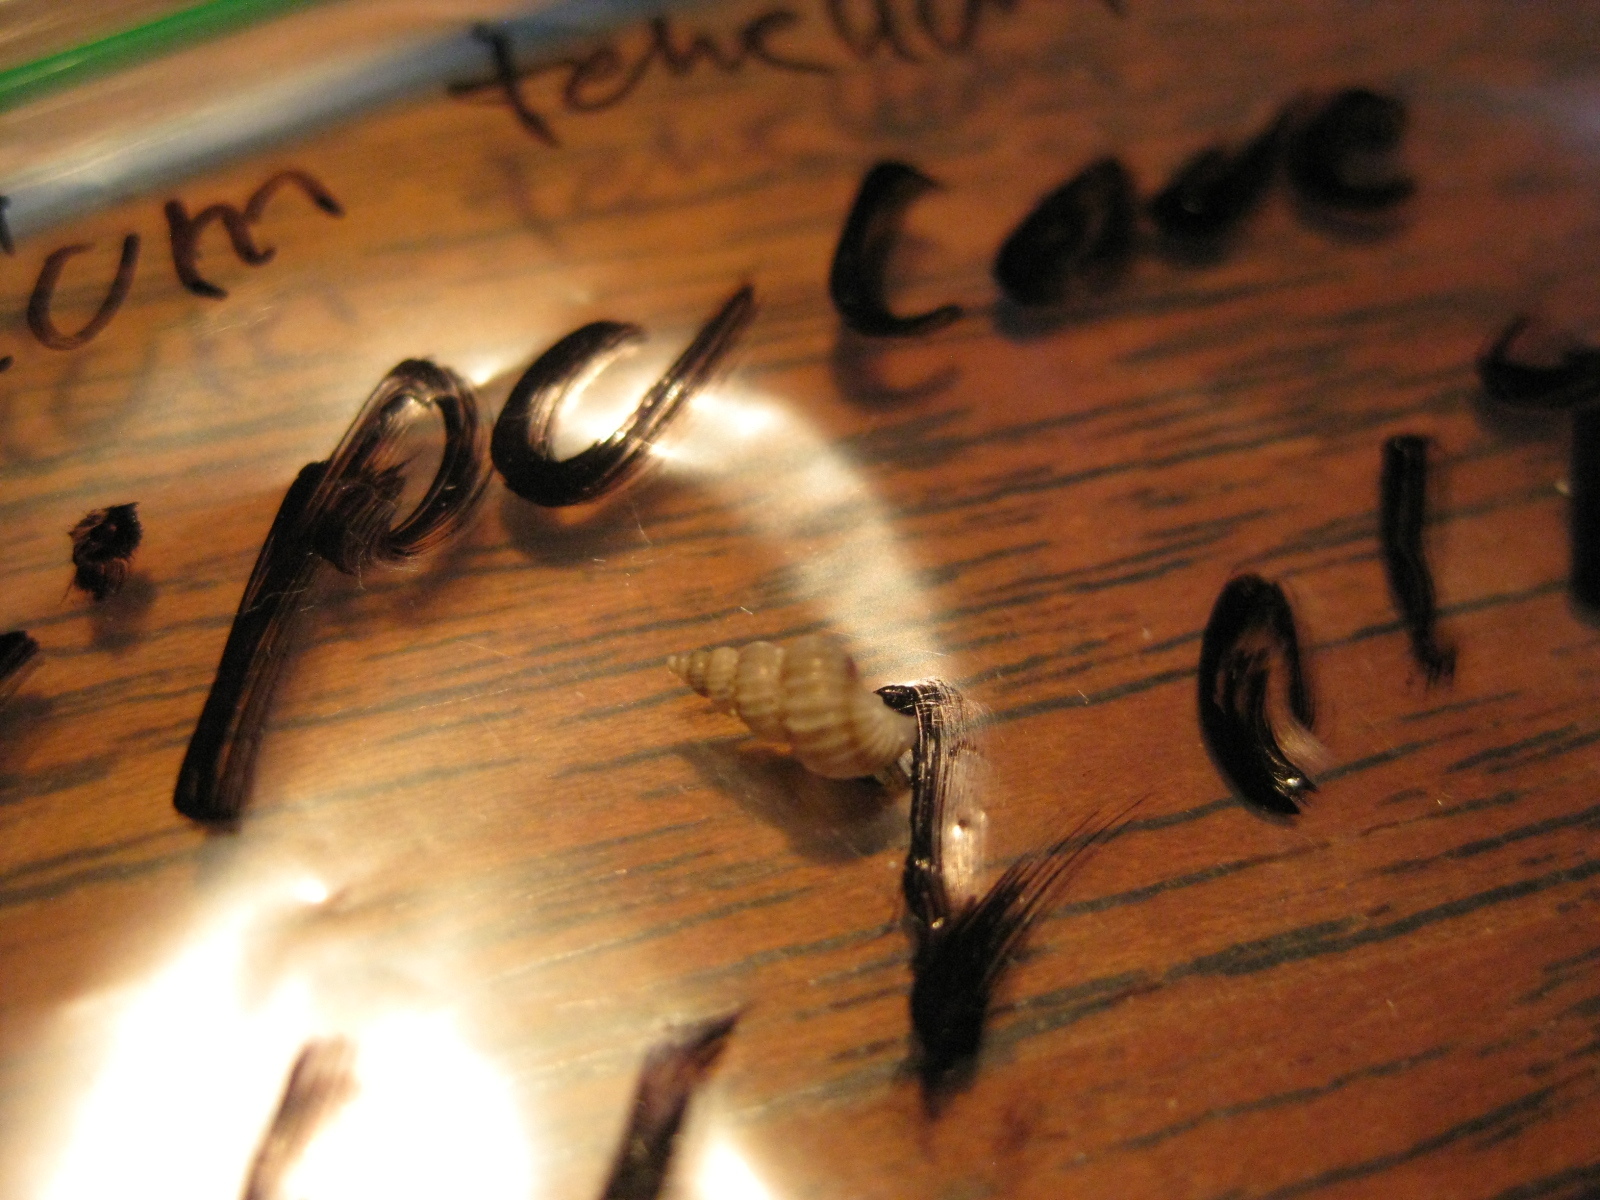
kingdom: Animalia
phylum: Mollusca
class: Gastropoda
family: Epitoniidae
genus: Epitonium
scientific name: Epitonium tenellum
